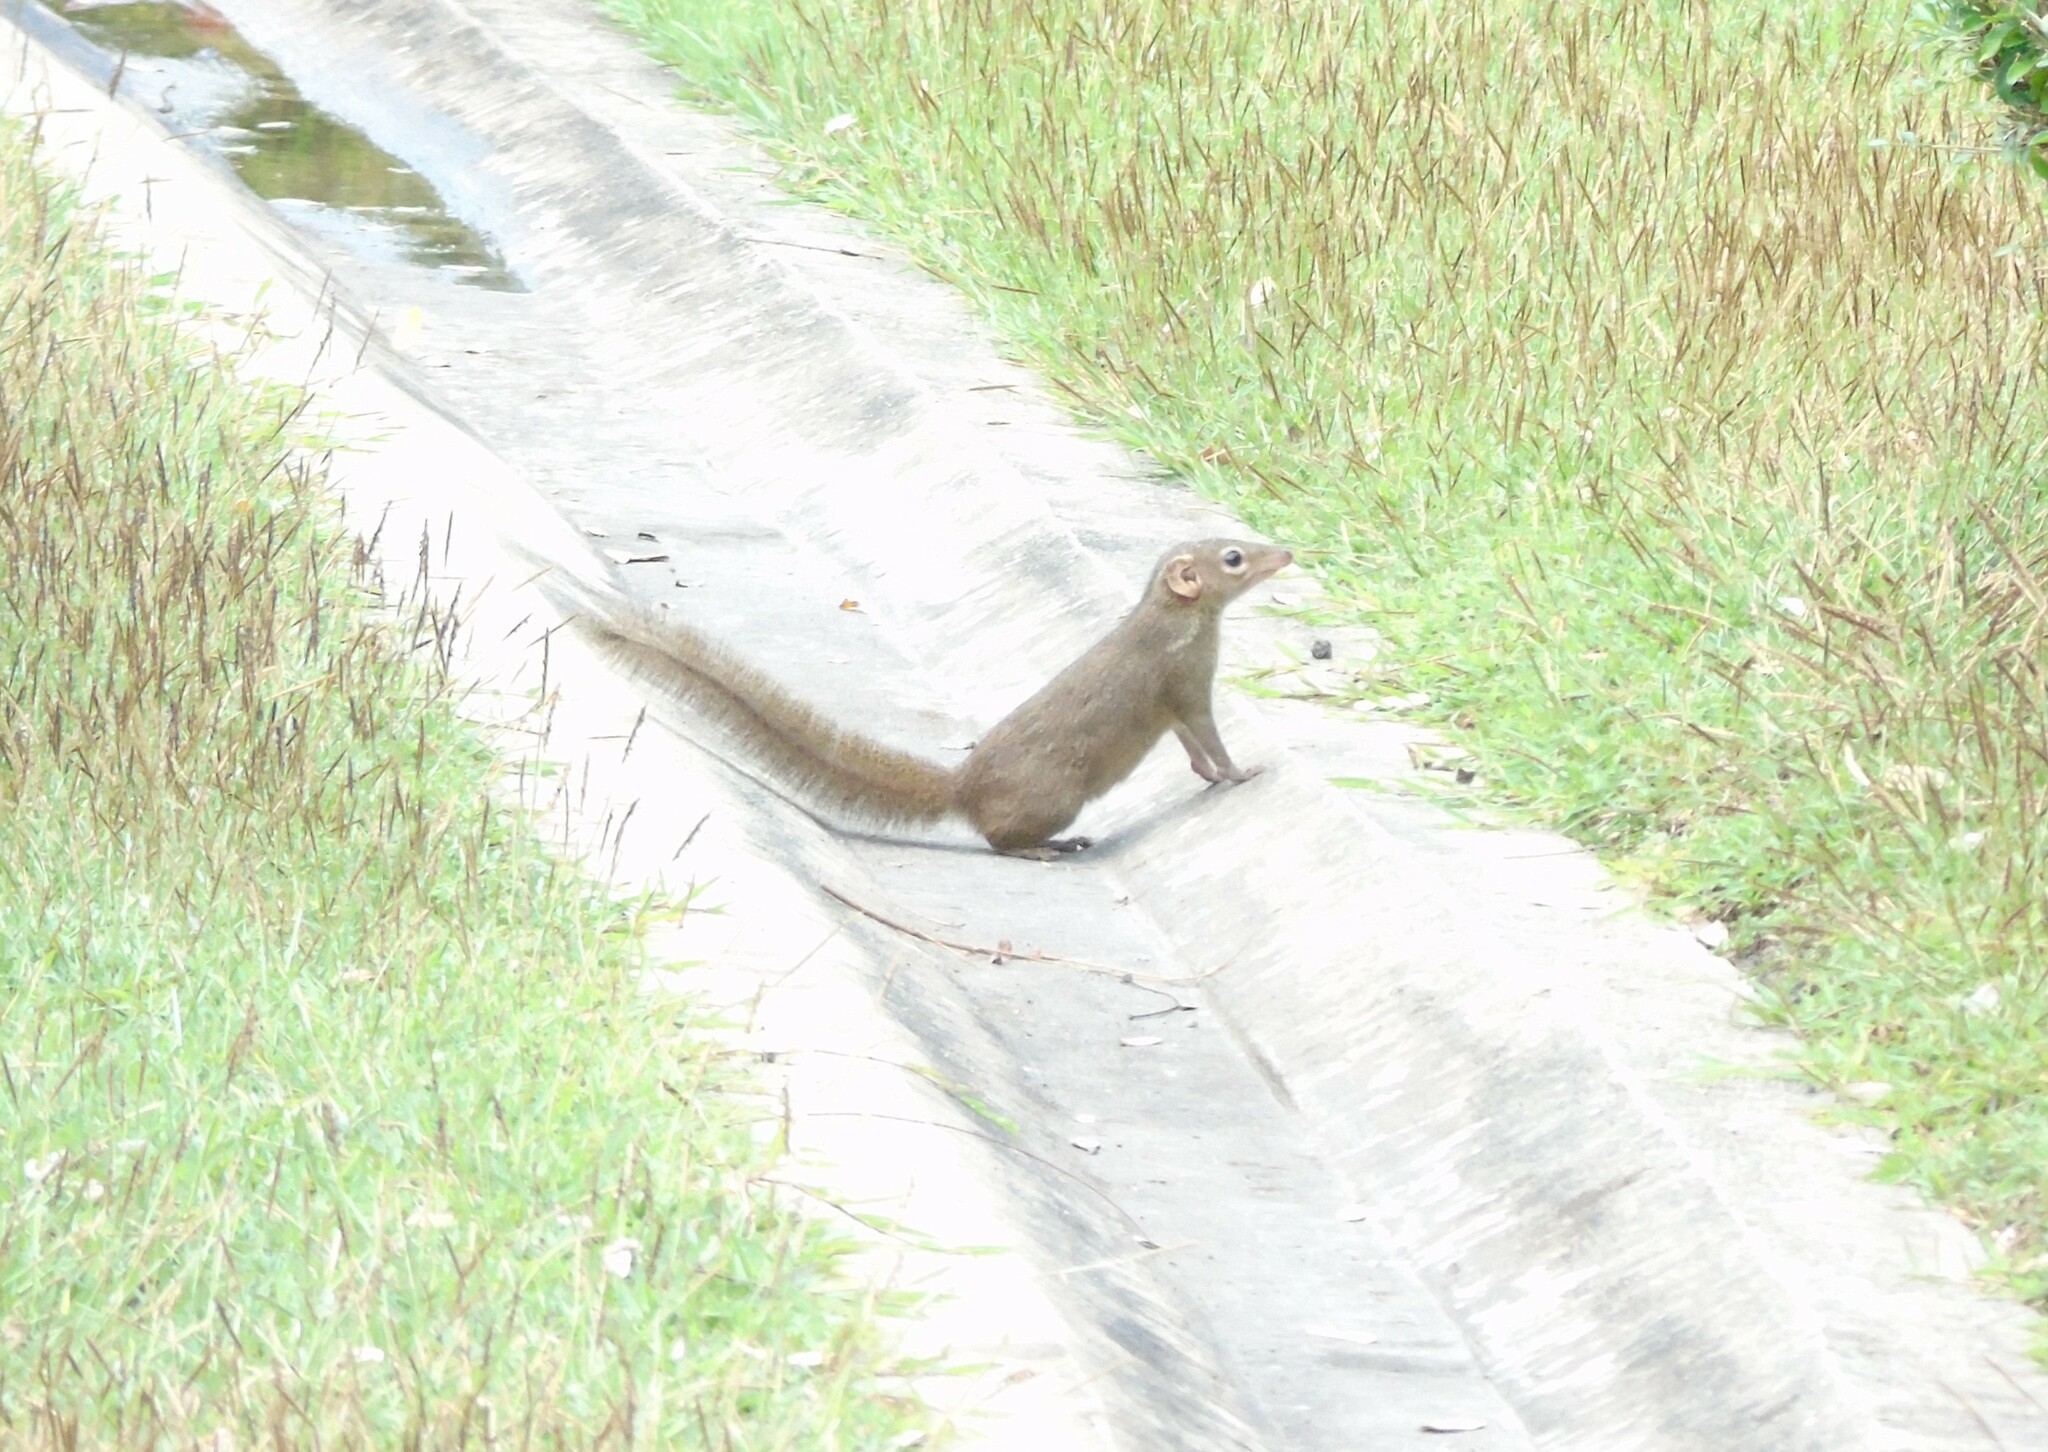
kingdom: Animalia
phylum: Chordata
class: Mammalia
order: Scandentia
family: Tupaiidae
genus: Tupaia
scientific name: Tupaia belangeri
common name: Northern treeshrew
